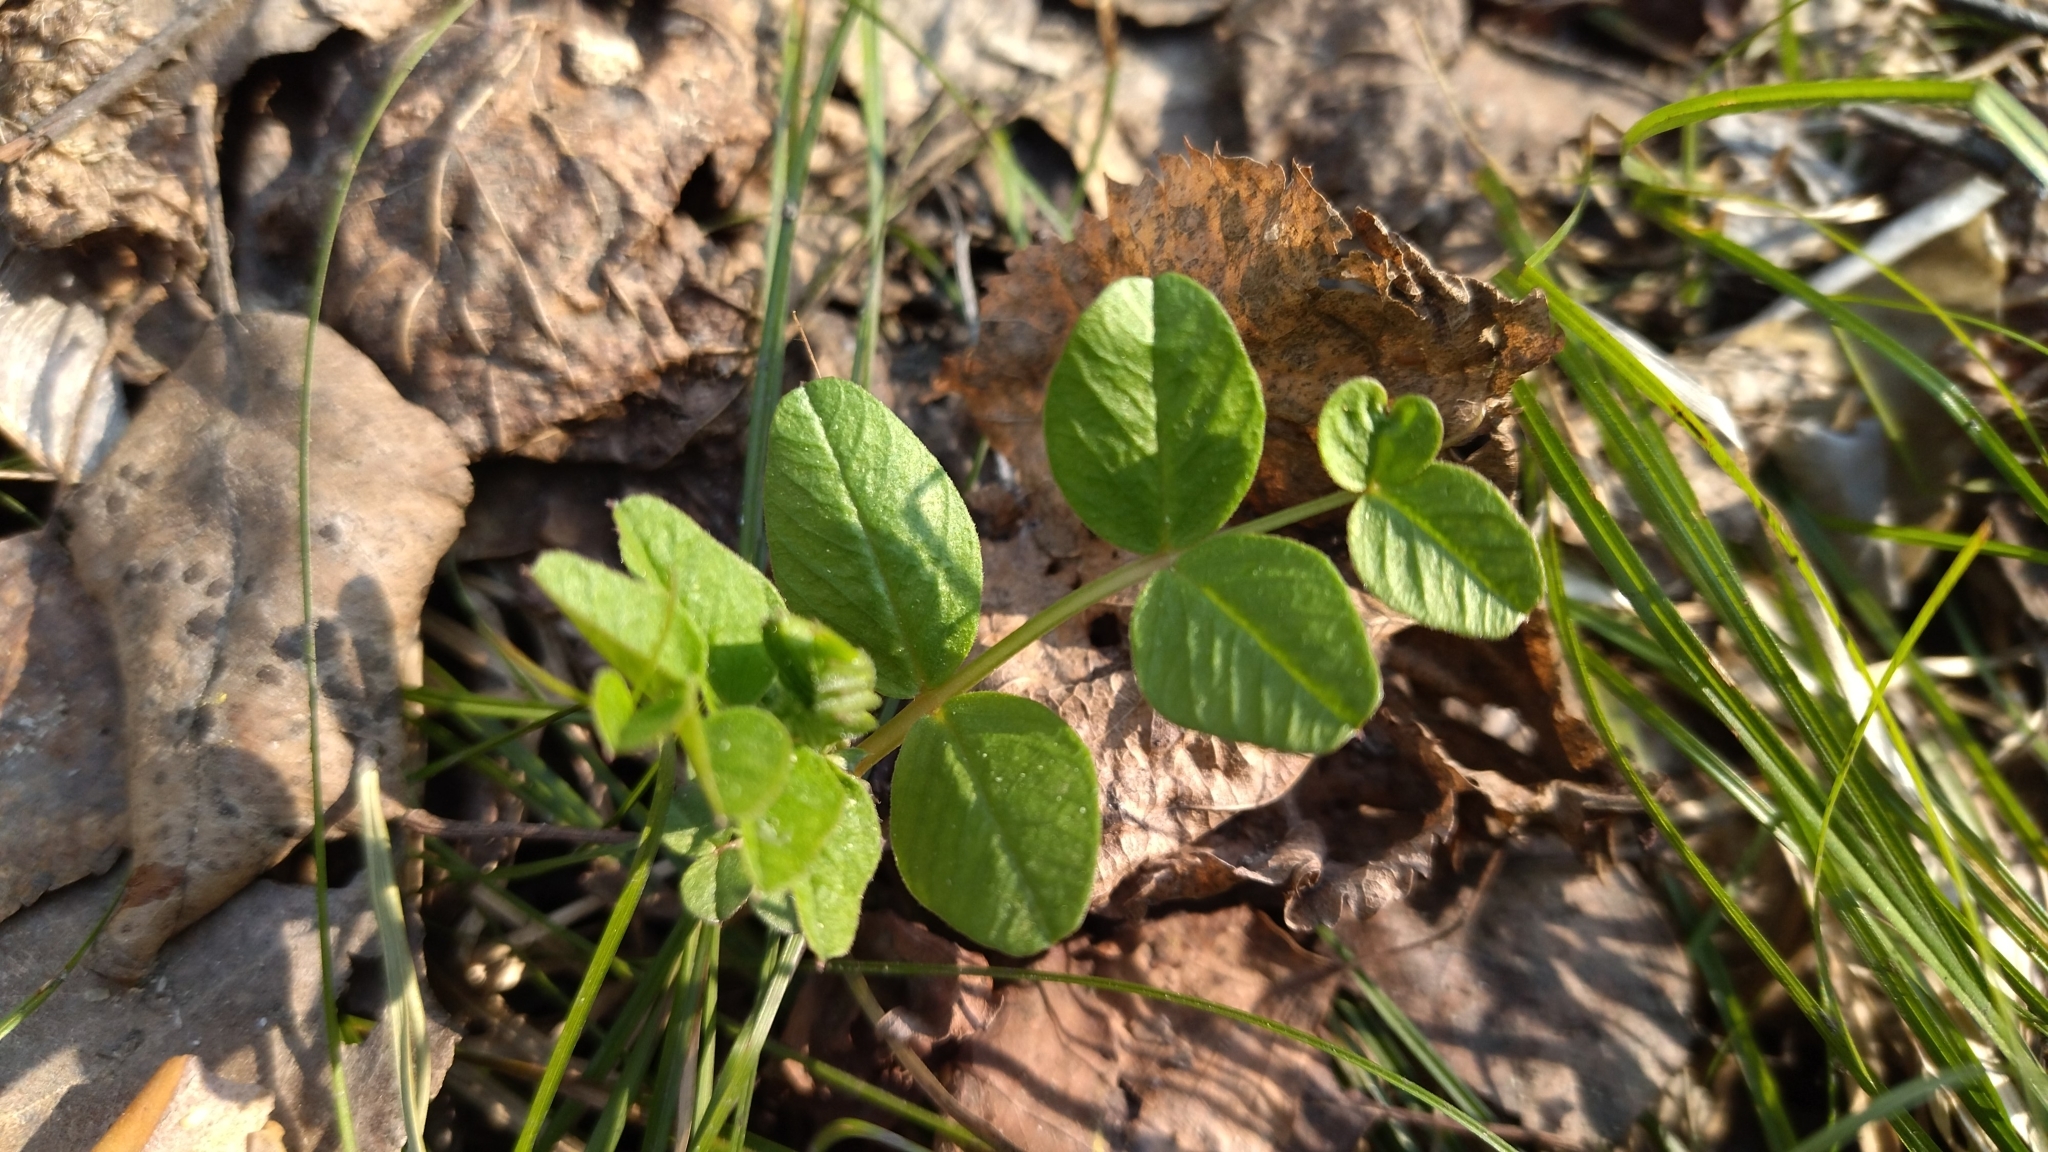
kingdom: Plantae
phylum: Tracheophyta
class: Magnoliopsida
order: Fabales
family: Fabaceae
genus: Vicia
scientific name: Vicia sepium
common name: Bush vetch
